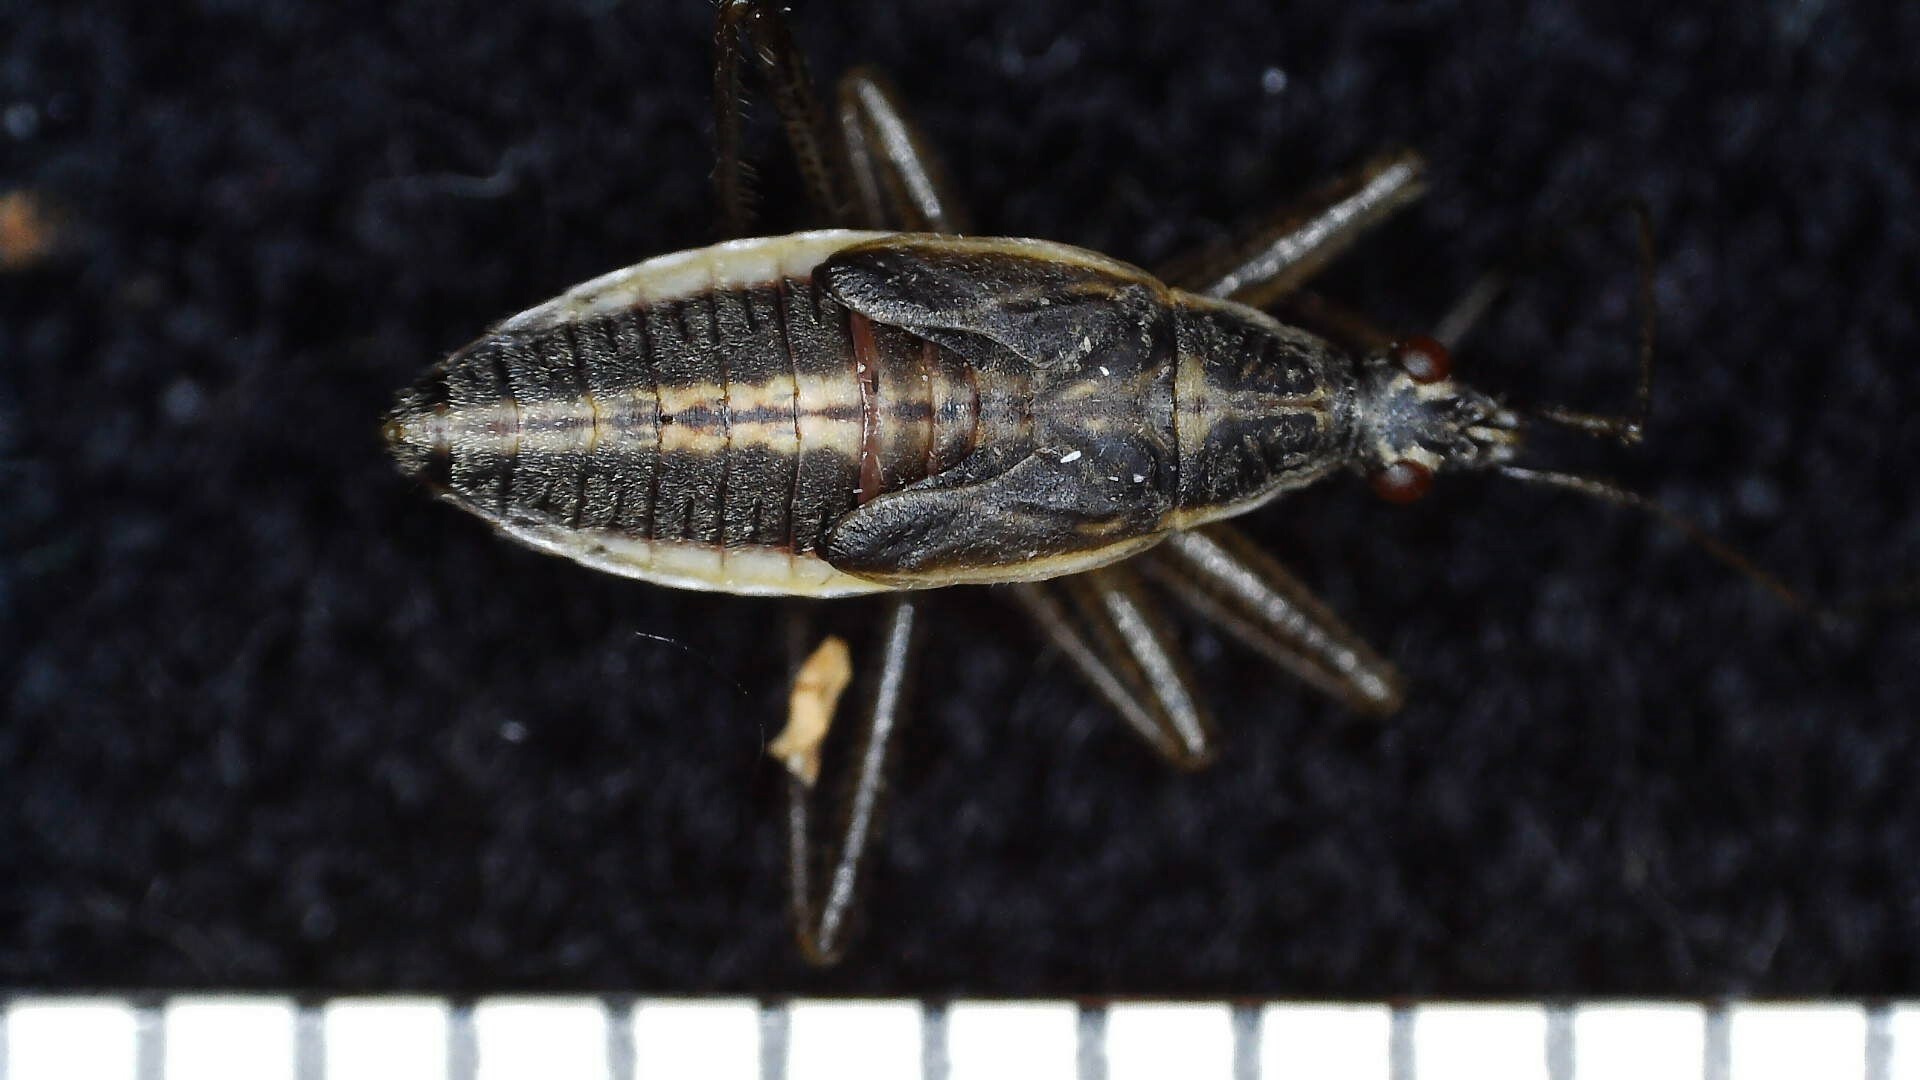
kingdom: Animalia
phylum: Arthropoda
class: Insecta
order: Hemiptera
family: Nabidae
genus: Nabis
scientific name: Nabis flavomarginatus
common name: Broad damselbug
